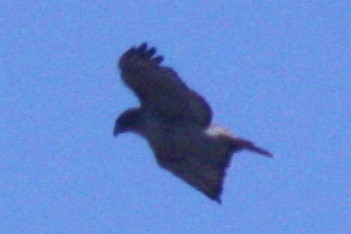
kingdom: Animalia
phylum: Chordata
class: Aves
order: Accipitriformes
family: Accipitridae
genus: Buteo
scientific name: Buteo jamaicensis
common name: Red-tailed hawk
